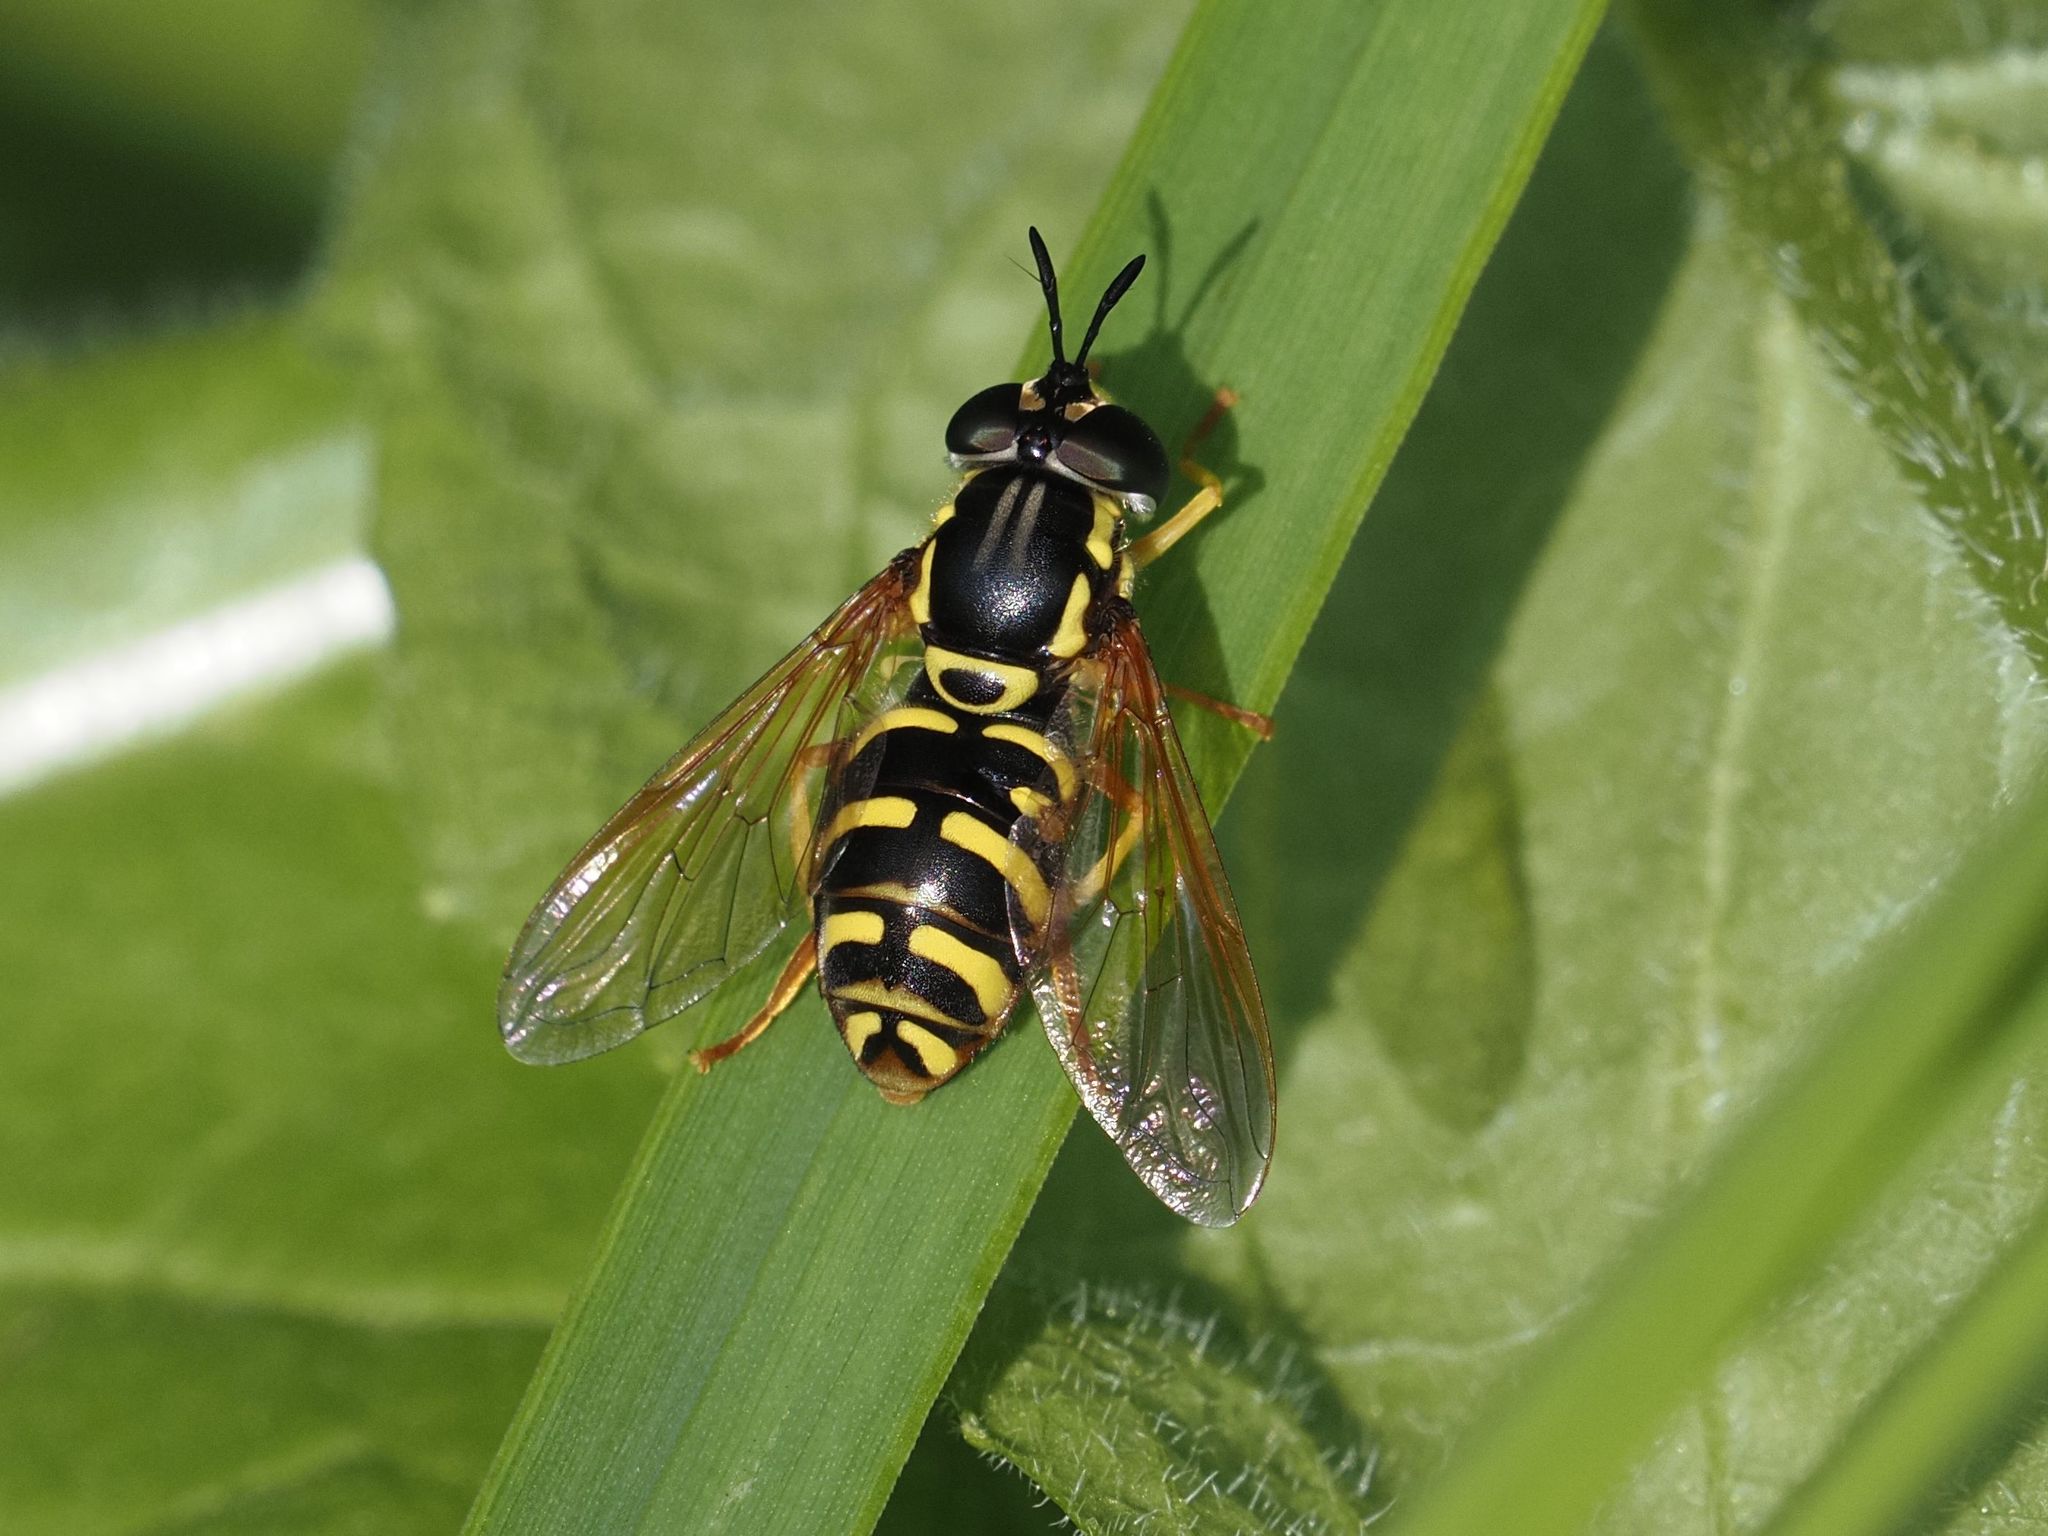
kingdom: Animalia
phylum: Arthropoda
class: Insecta
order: Diptera
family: Syrphidae
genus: Chrysotoxum
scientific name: Chrysotoxum elegans
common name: Zipperback
